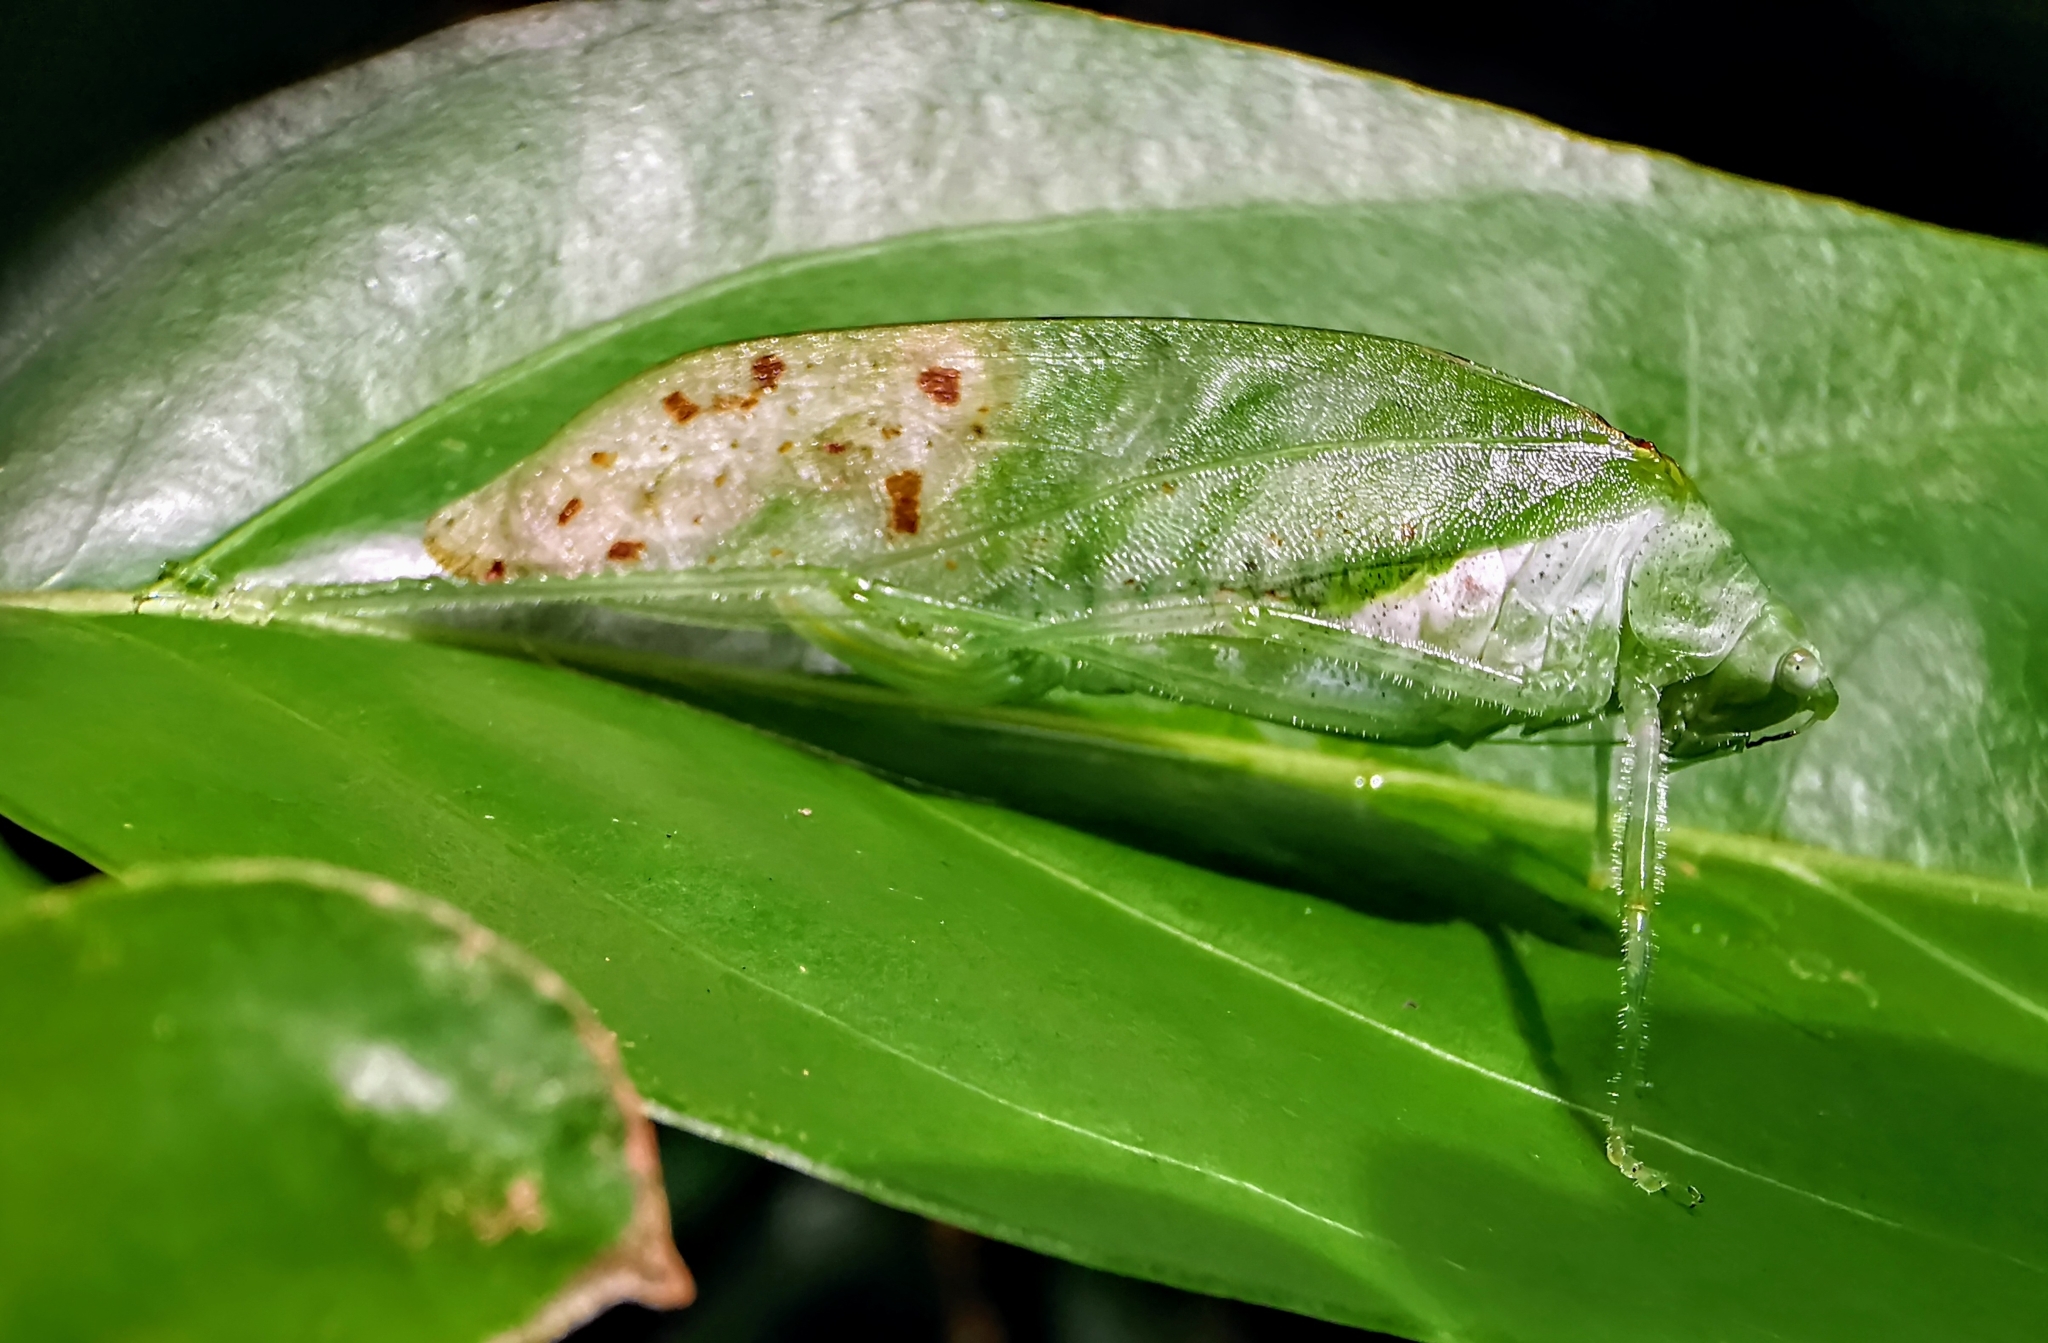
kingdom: Animalia
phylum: Arthropoda
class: Insecta
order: Orthoptera
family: Tettigoniidae
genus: Arnobia
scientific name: Arnobia pilipes
